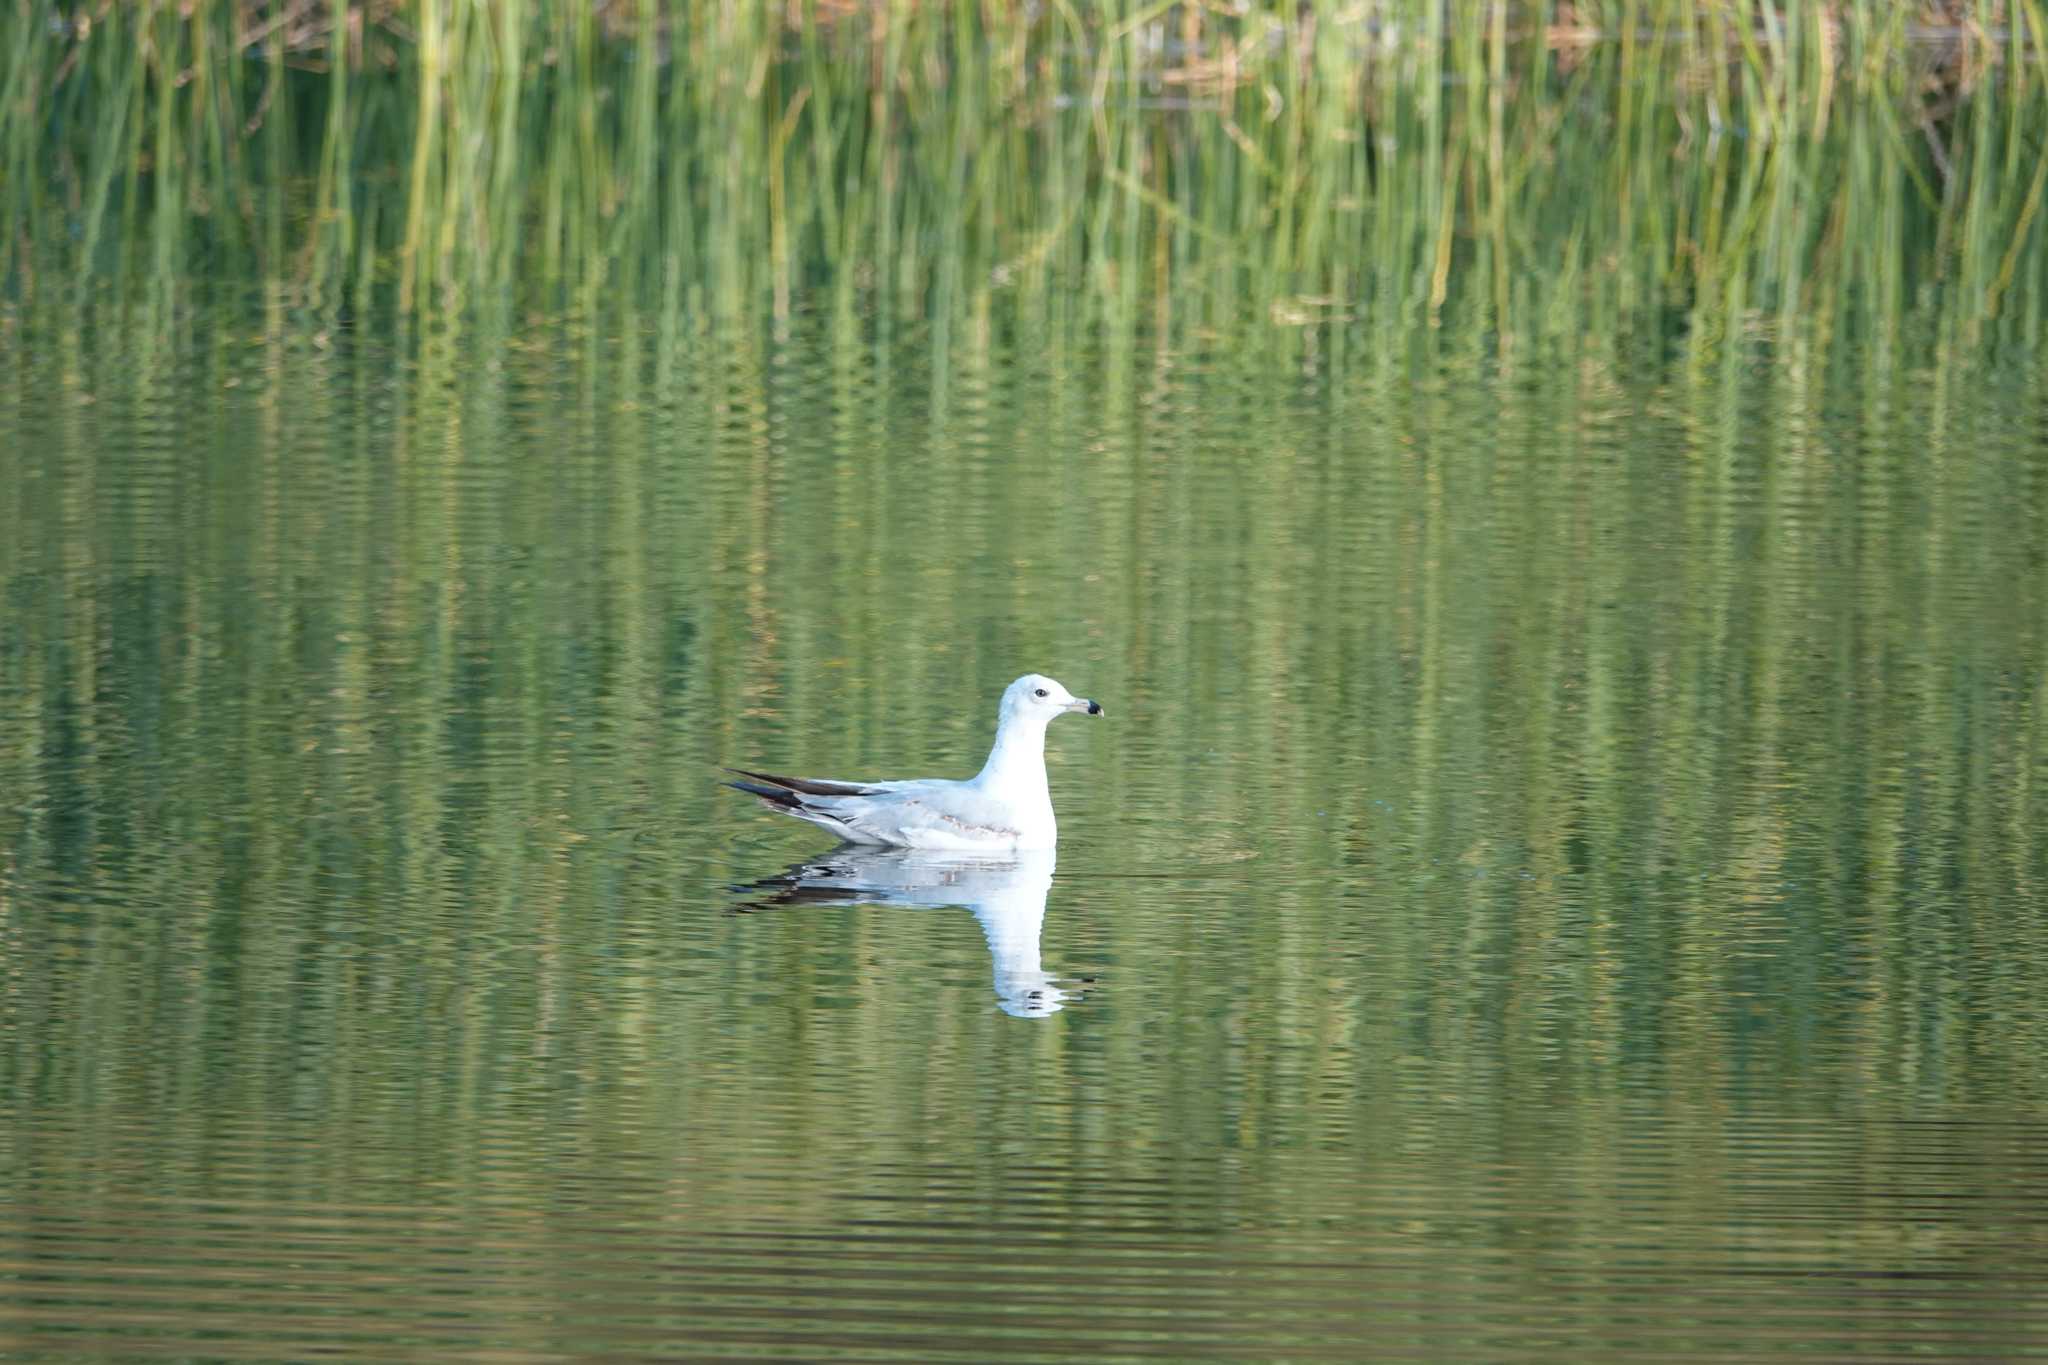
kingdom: Animalia
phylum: Chordata
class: Aves
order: Charadriiformes
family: Laridae
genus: Larus
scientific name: Larus delawarensis
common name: Ring-billed gull
